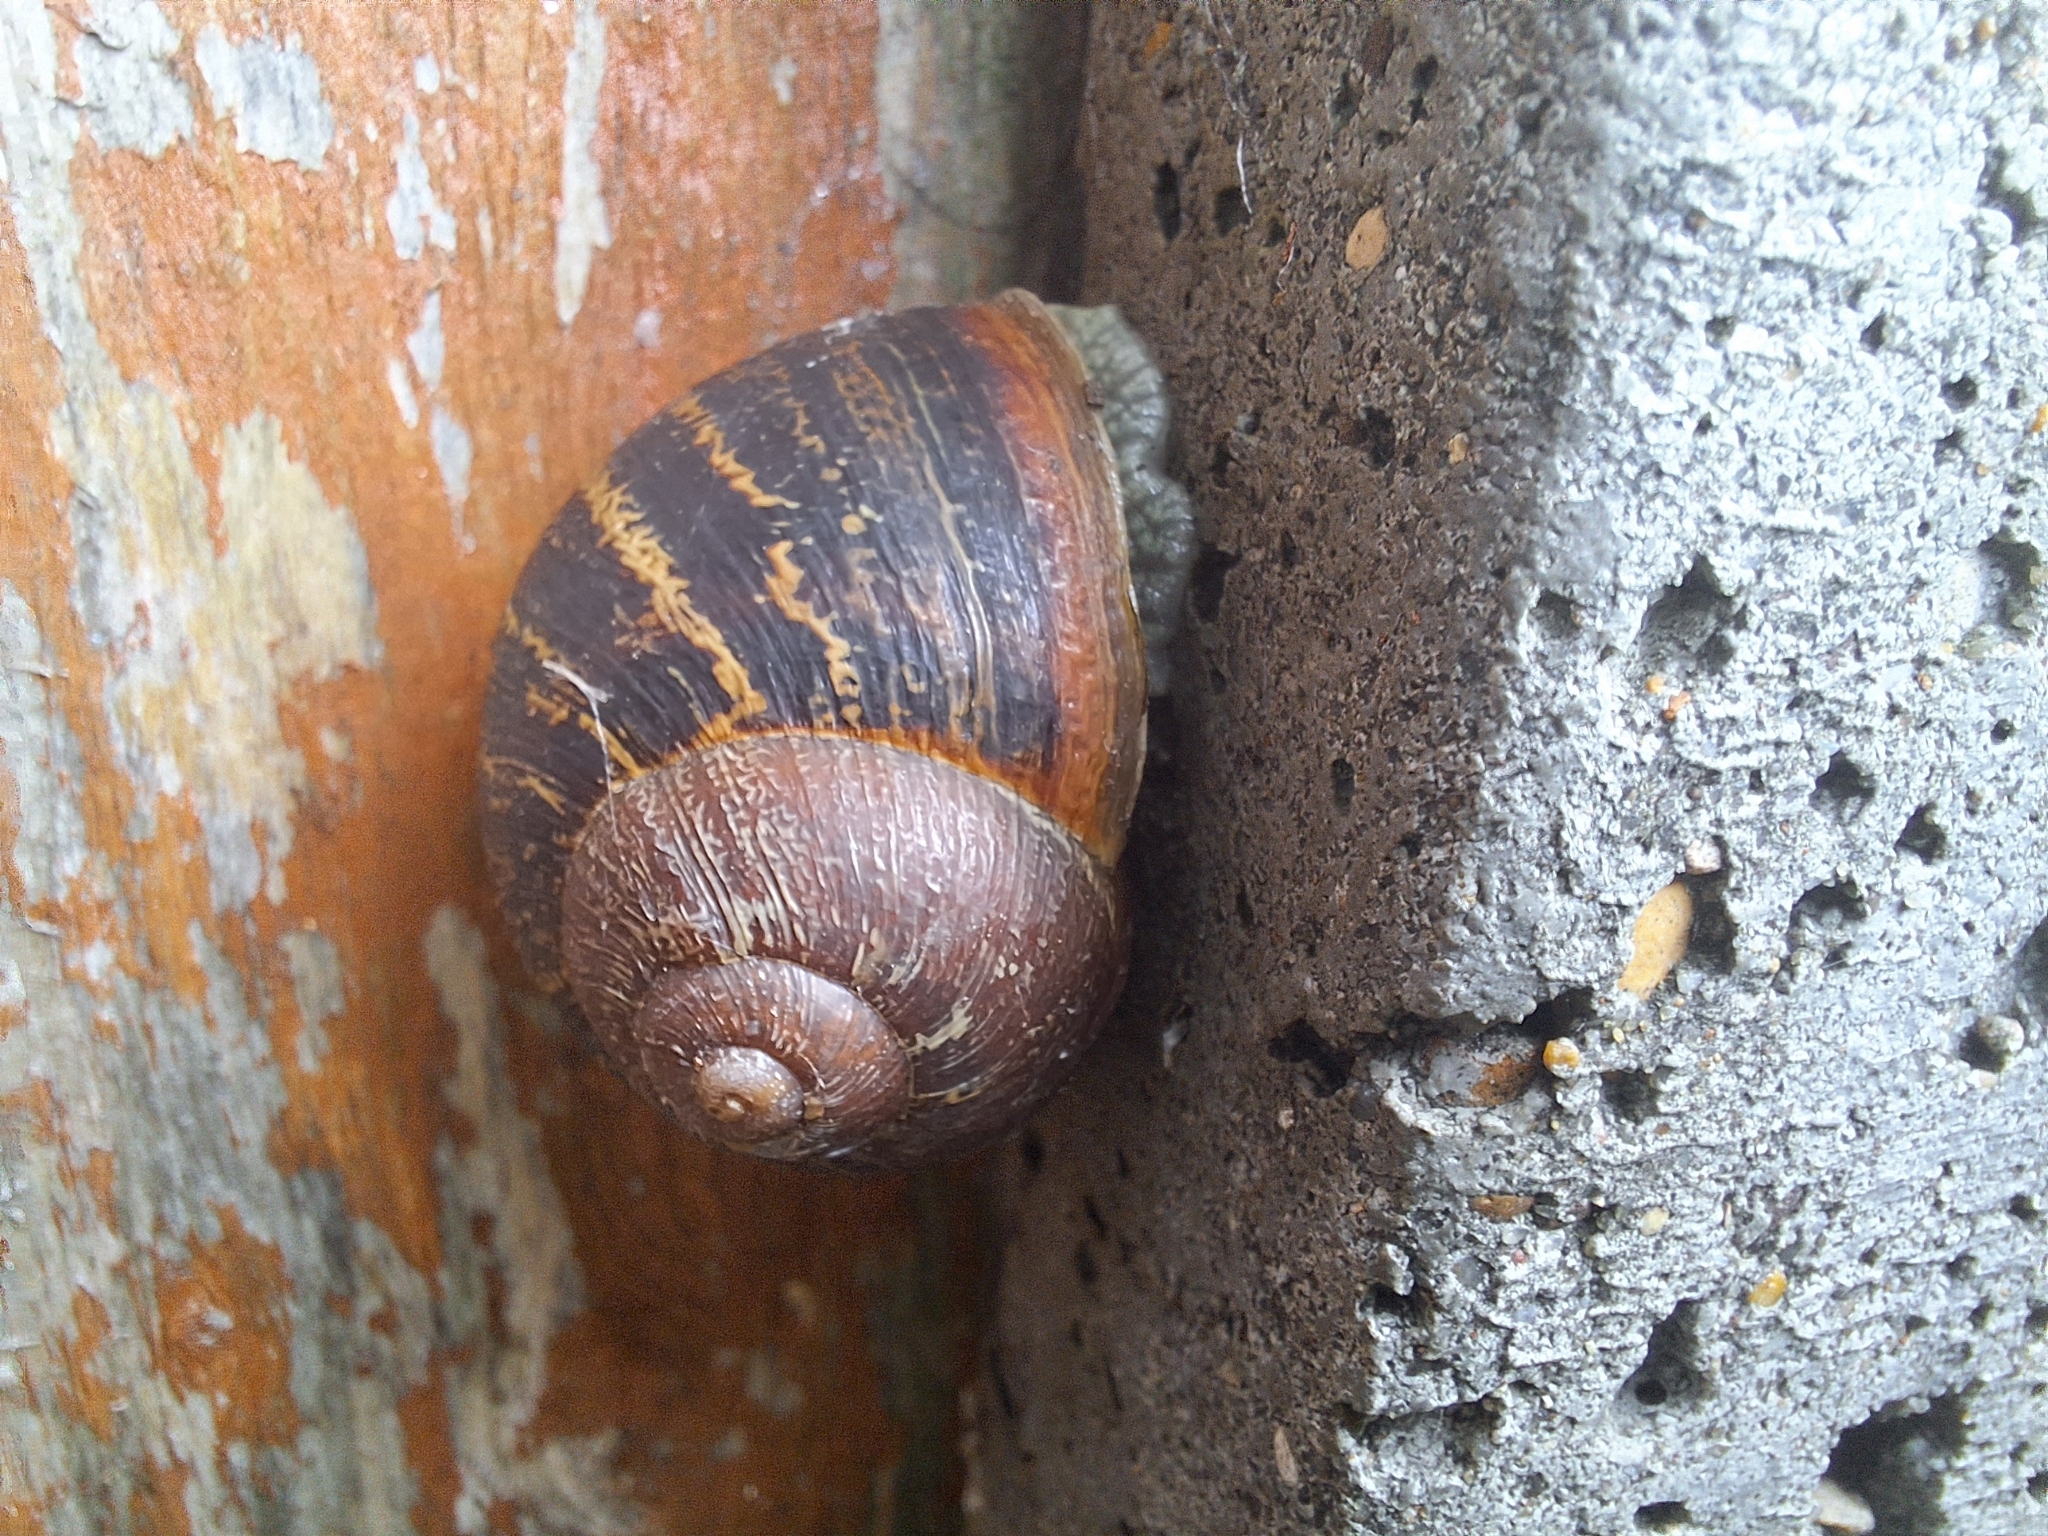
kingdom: Animalia
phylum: Mollusca
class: Gastropoda
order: Stylommatophora
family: Helicidae
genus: Cornu
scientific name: Cornu aspersum
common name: Brown garden snail
